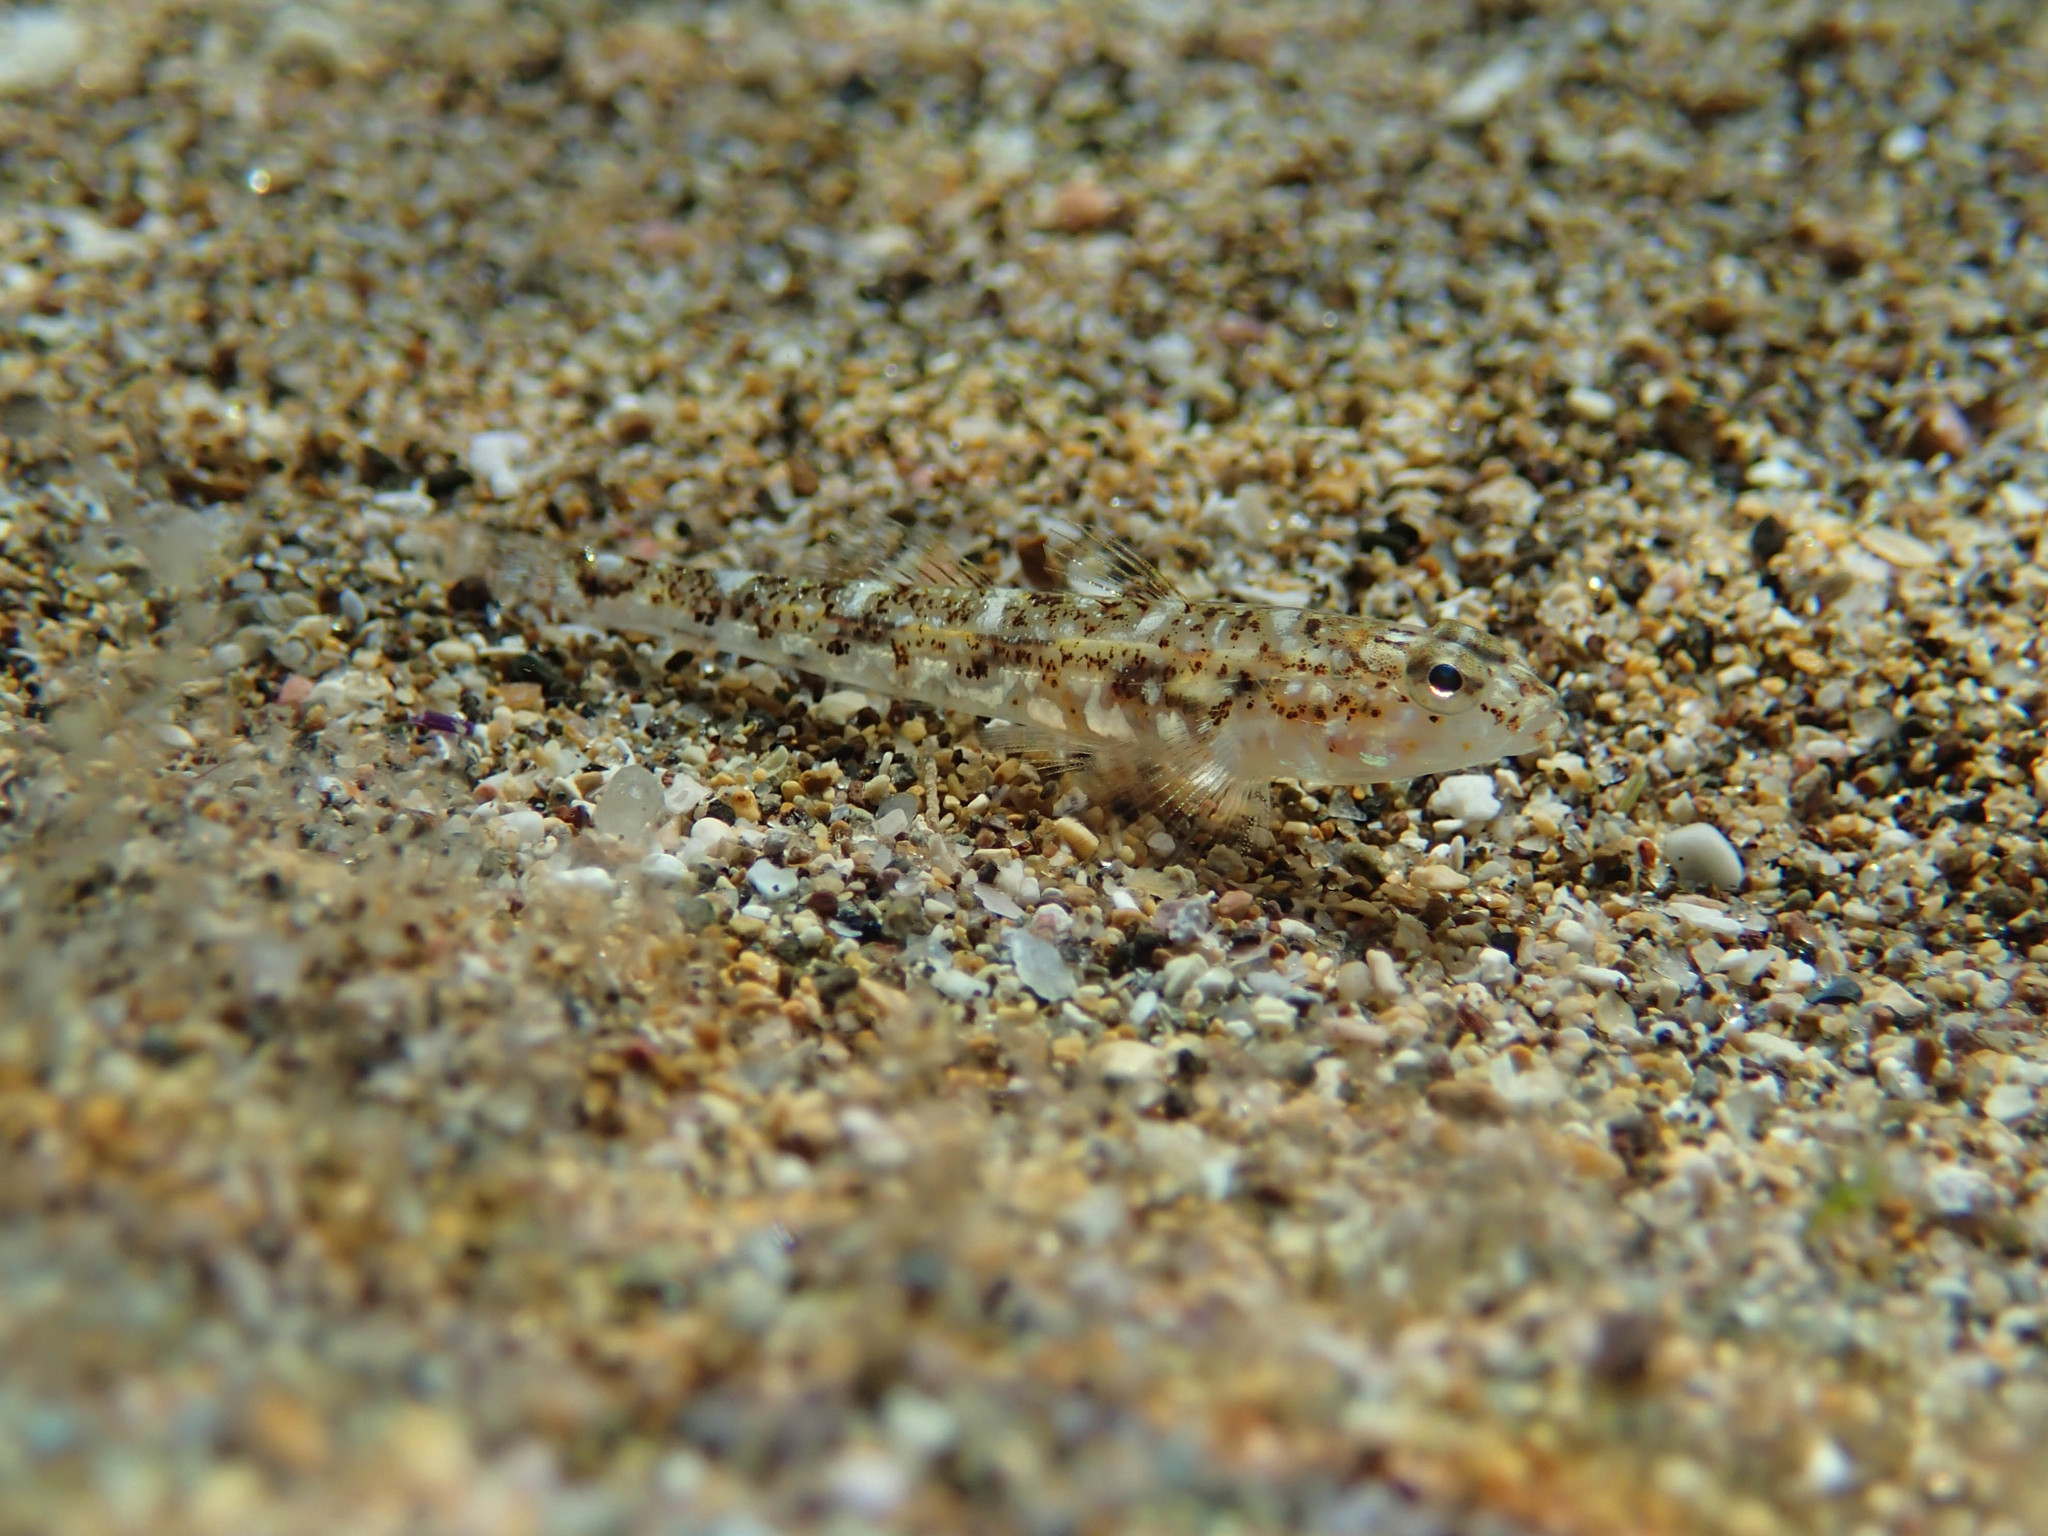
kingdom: Animalia
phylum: Chordata
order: Perciformes
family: Gobiidae
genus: Pomatoschistus
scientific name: Pomatoschistus marmoratus
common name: Marbled goby
